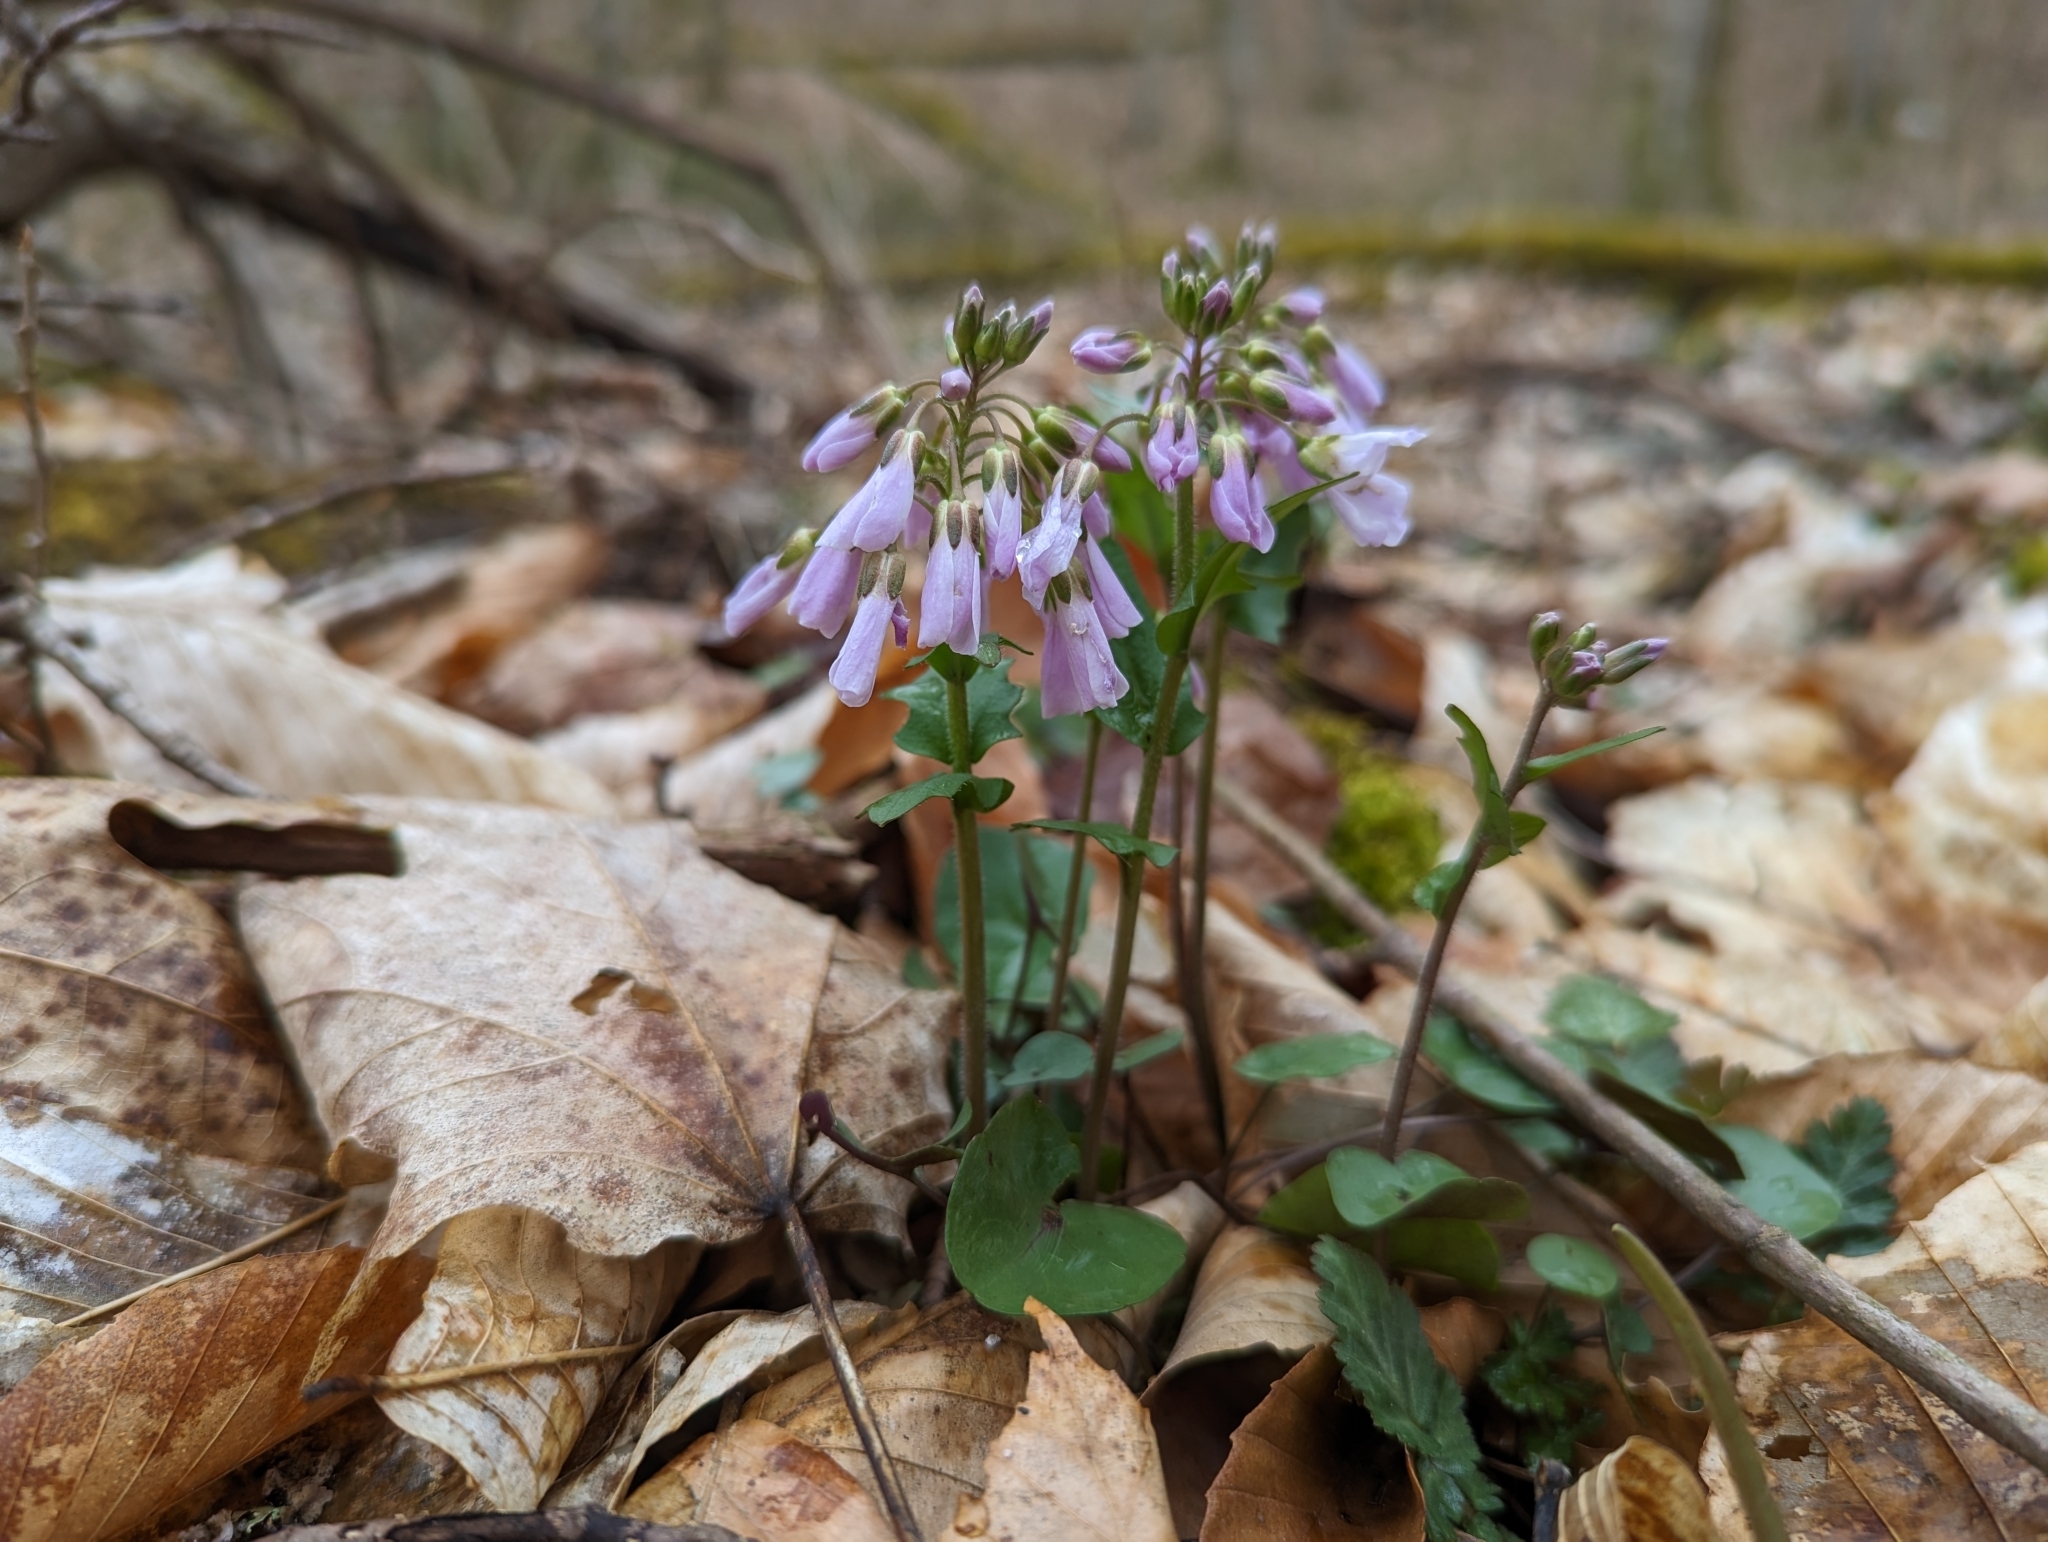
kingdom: Plantae
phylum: Tracheophyta
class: Magnoliopsida
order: Brassicales
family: Brassicaceae
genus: Cardamine
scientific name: Cardamine douglassii
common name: Purple cress
